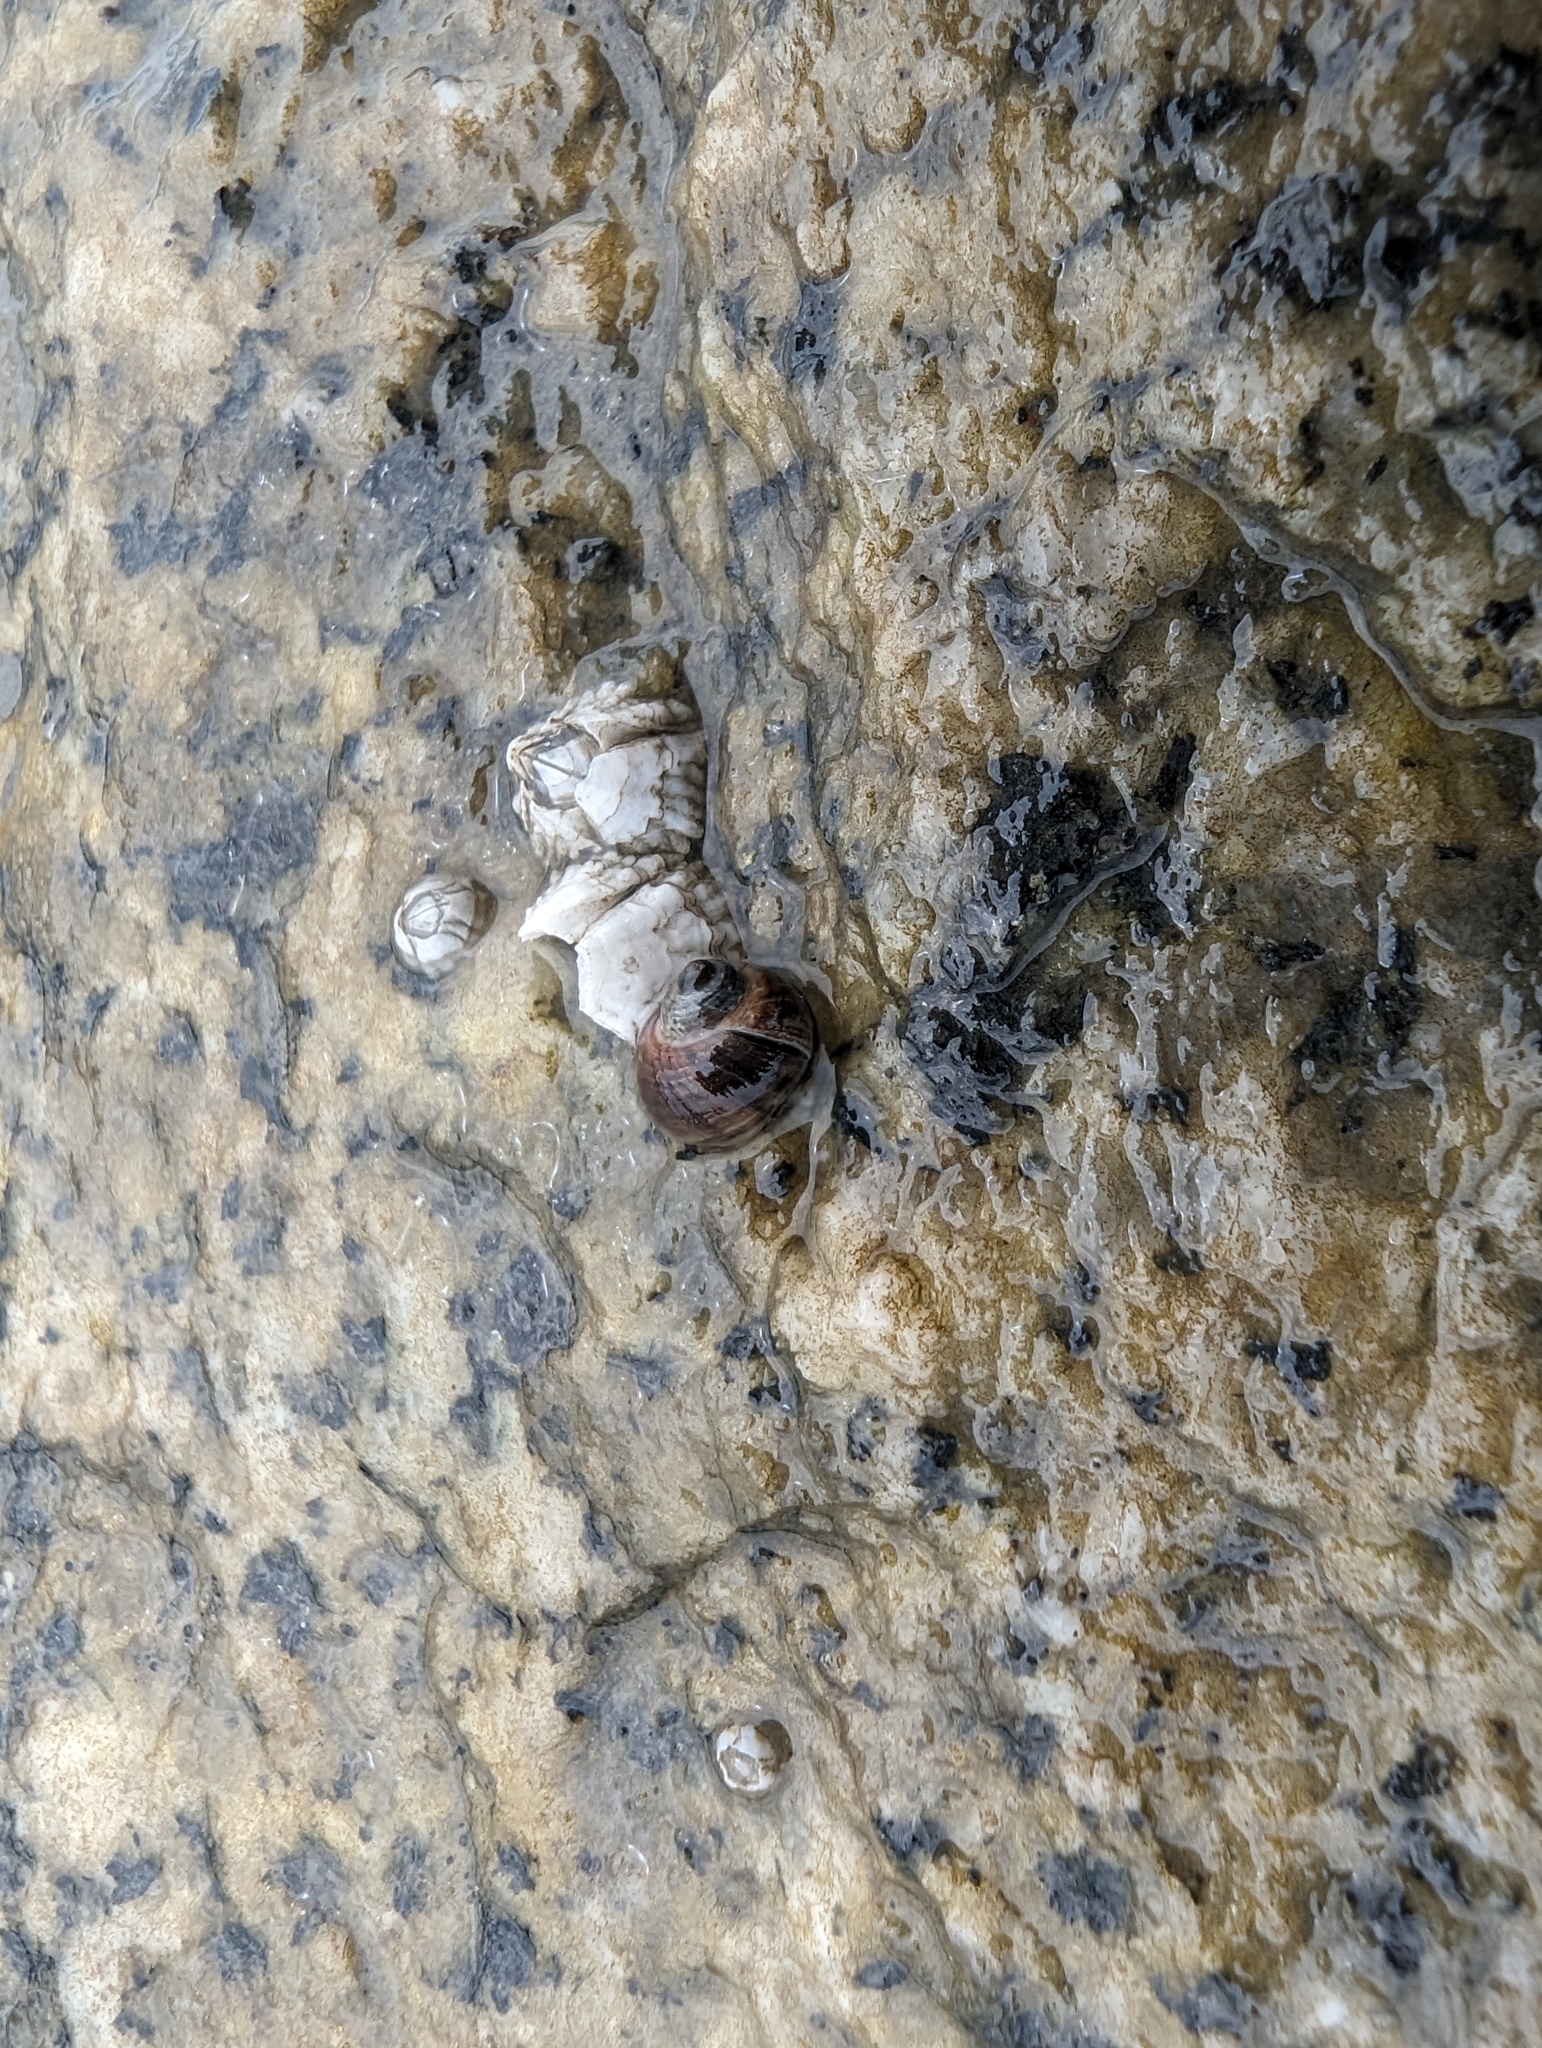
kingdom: Animalia
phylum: Mollusca
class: Gastropoda
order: Littorinimorpha
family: Littorinidae
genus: Littorina
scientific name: Littorina sitkana
